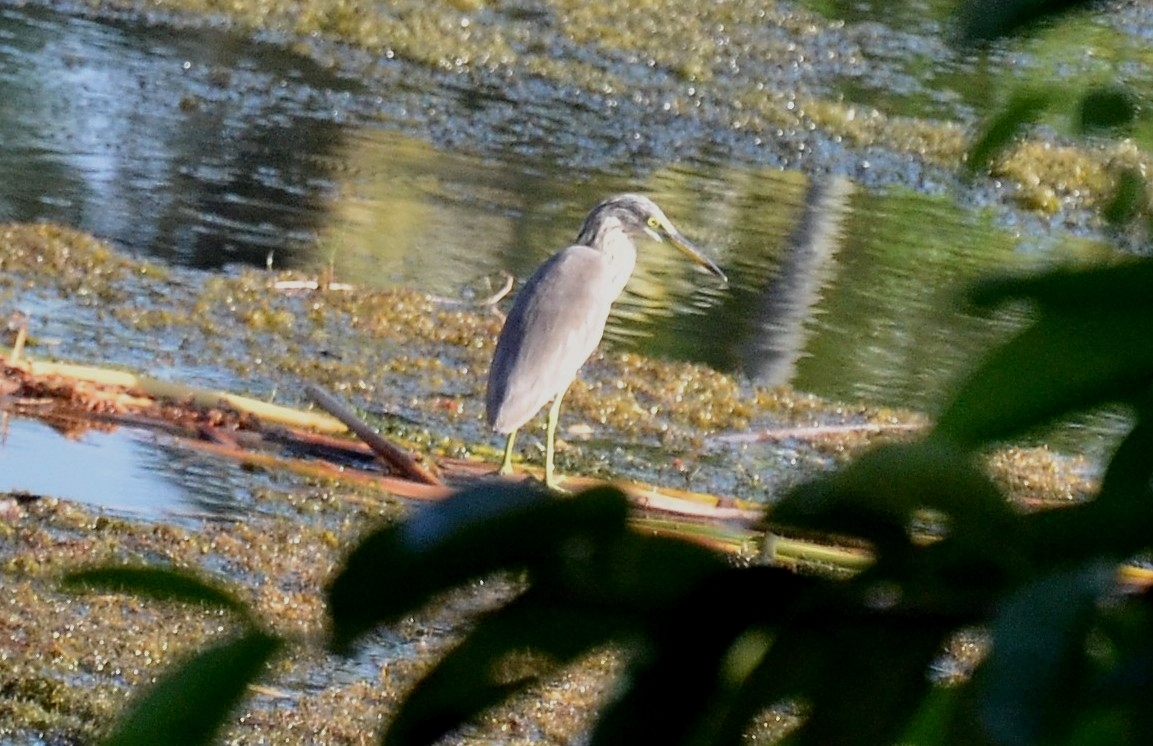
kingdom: Animalia
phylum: Chordata
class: Aves
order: Pelecaniformes
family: Ardeidae
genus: Ardeola
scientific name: Ardeola grayii
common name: Indian pond heron
